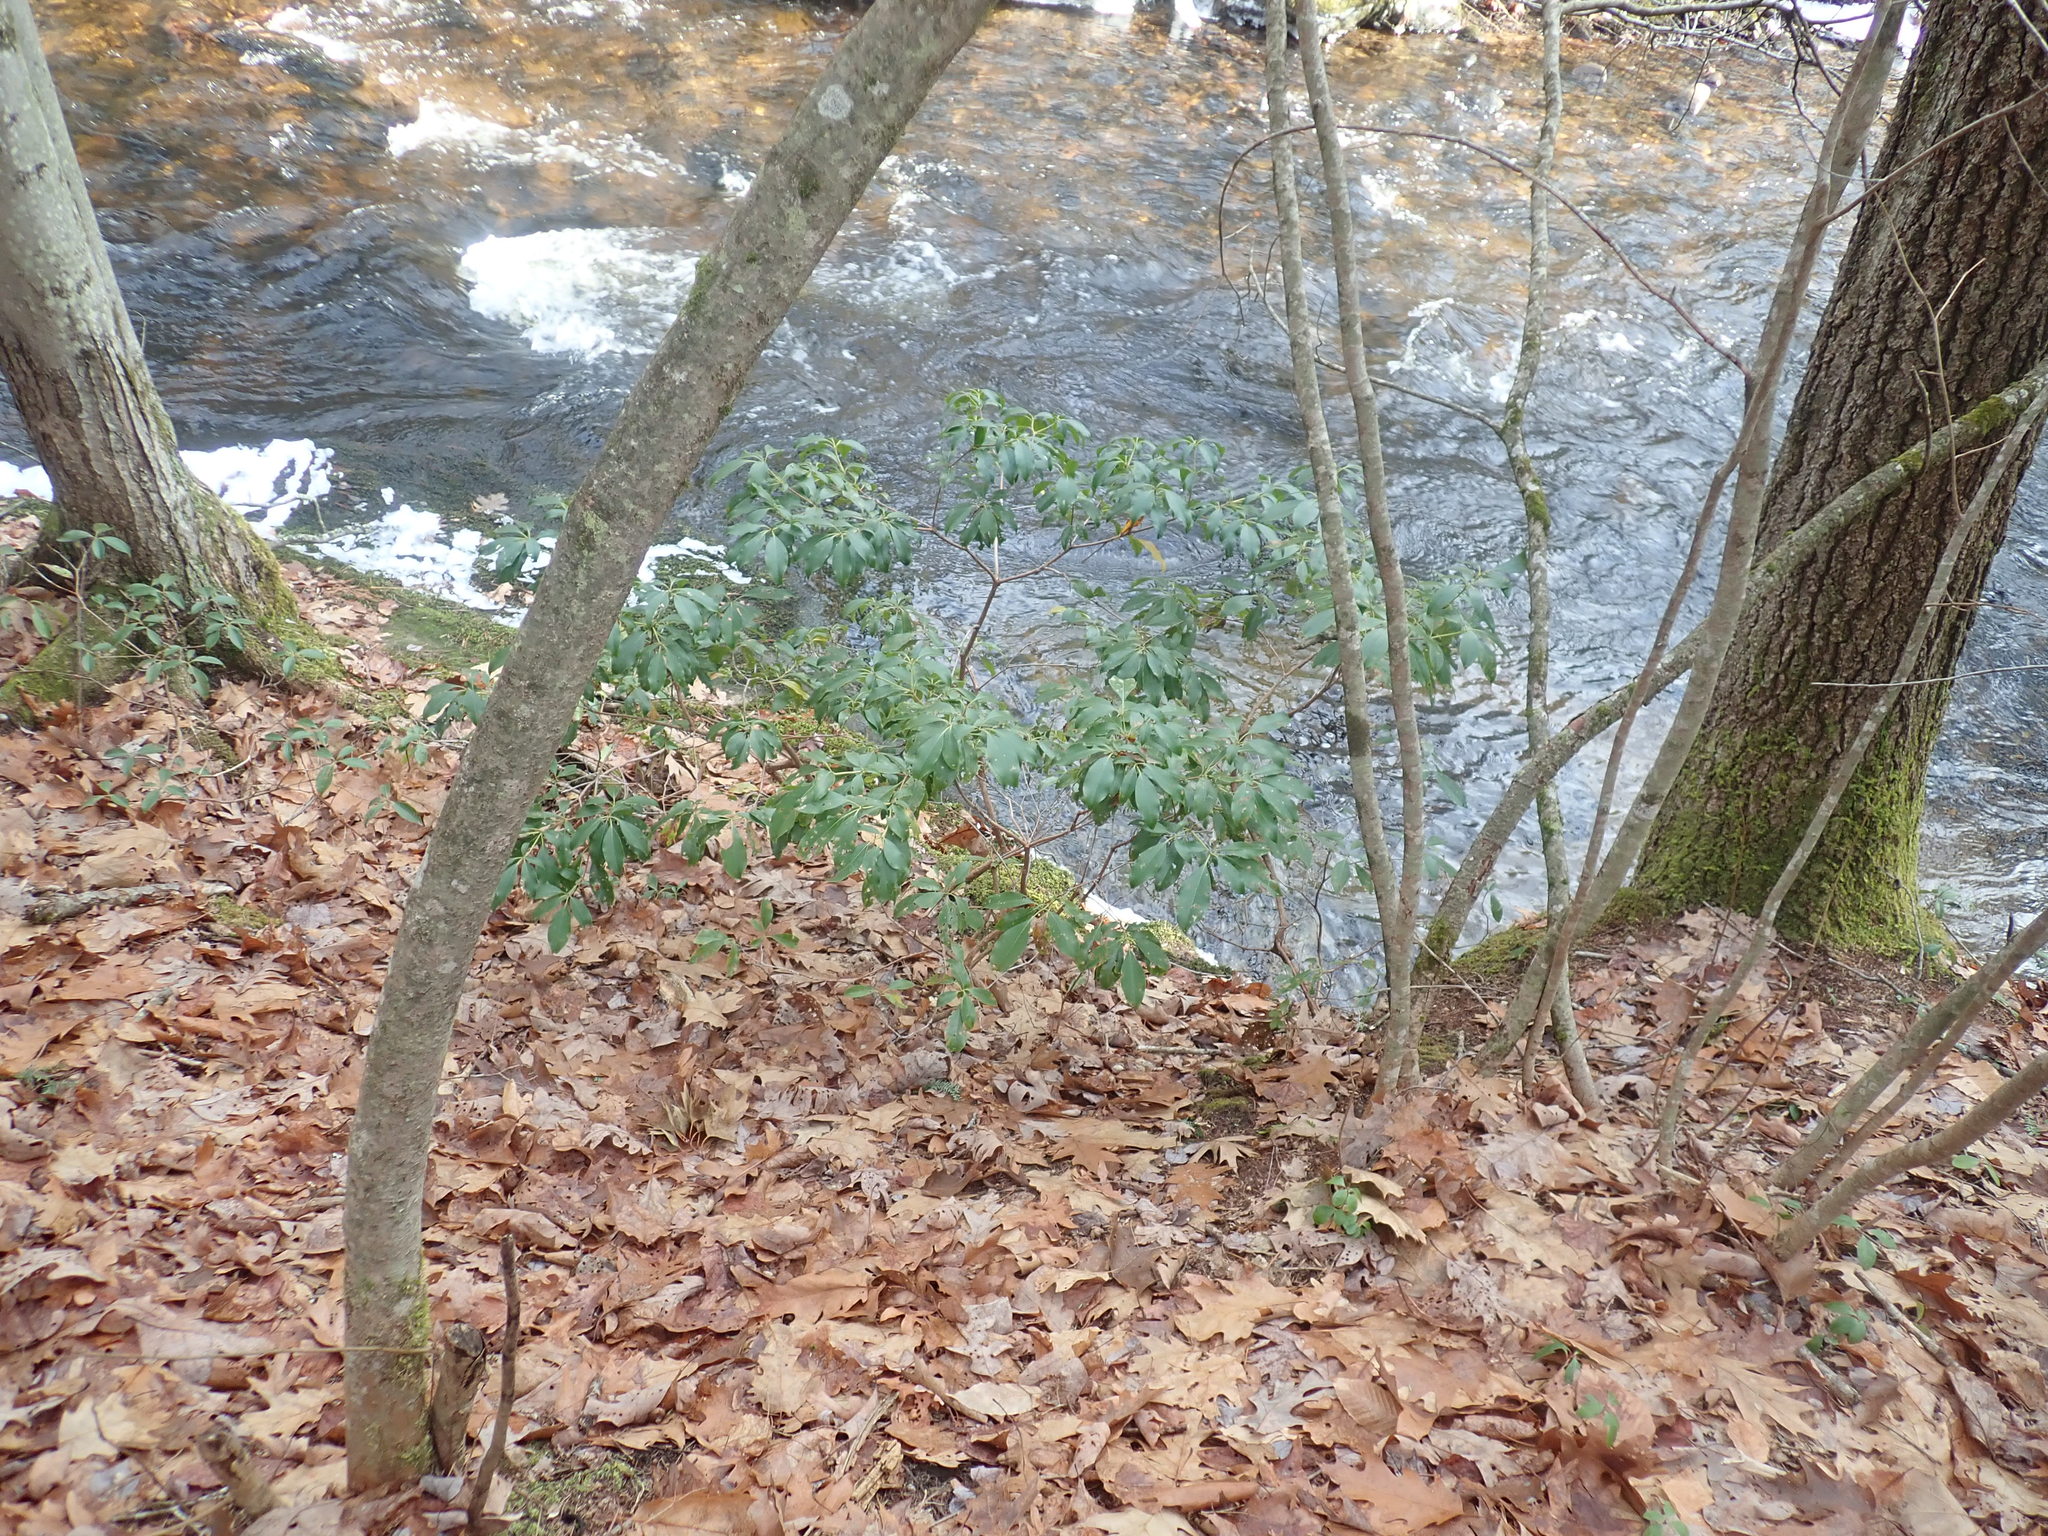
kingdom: Plantae
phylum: Tracheophyta
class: Magnoliopsida
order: Ericales
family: Ericaceae
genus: Kalmia
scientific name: Kalmia latifolia
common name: Mountain-laurel
